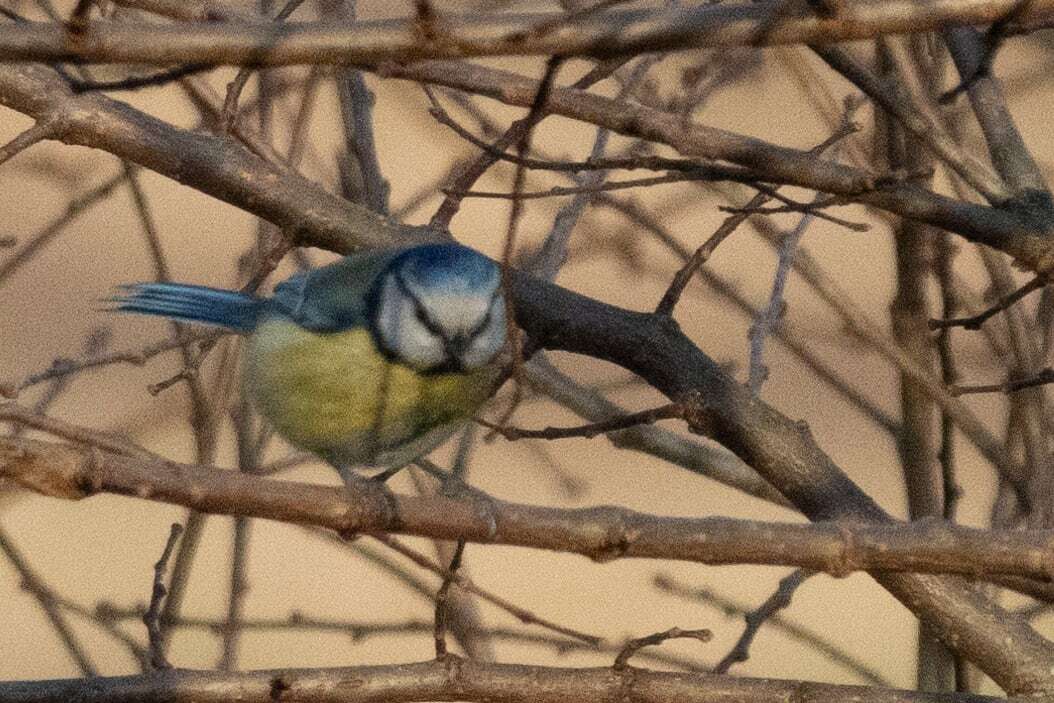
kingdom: Animalia
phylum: Chordata
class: Aves
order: Passeriformes
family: Paridae
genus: Cyanistes
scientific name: Cyanistes caeruleus
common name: Eurasian blue tit
